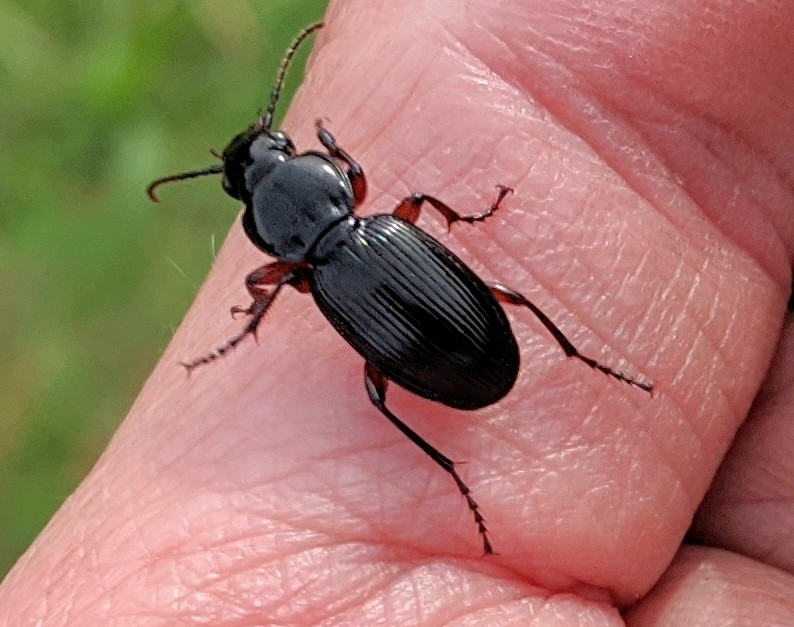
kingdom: Animalia
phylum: Arthropoda
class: Insecta
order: Coleoptera
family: Carabidae
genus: Pterostichus
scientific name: Pterostichus madidus
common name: Black clock
